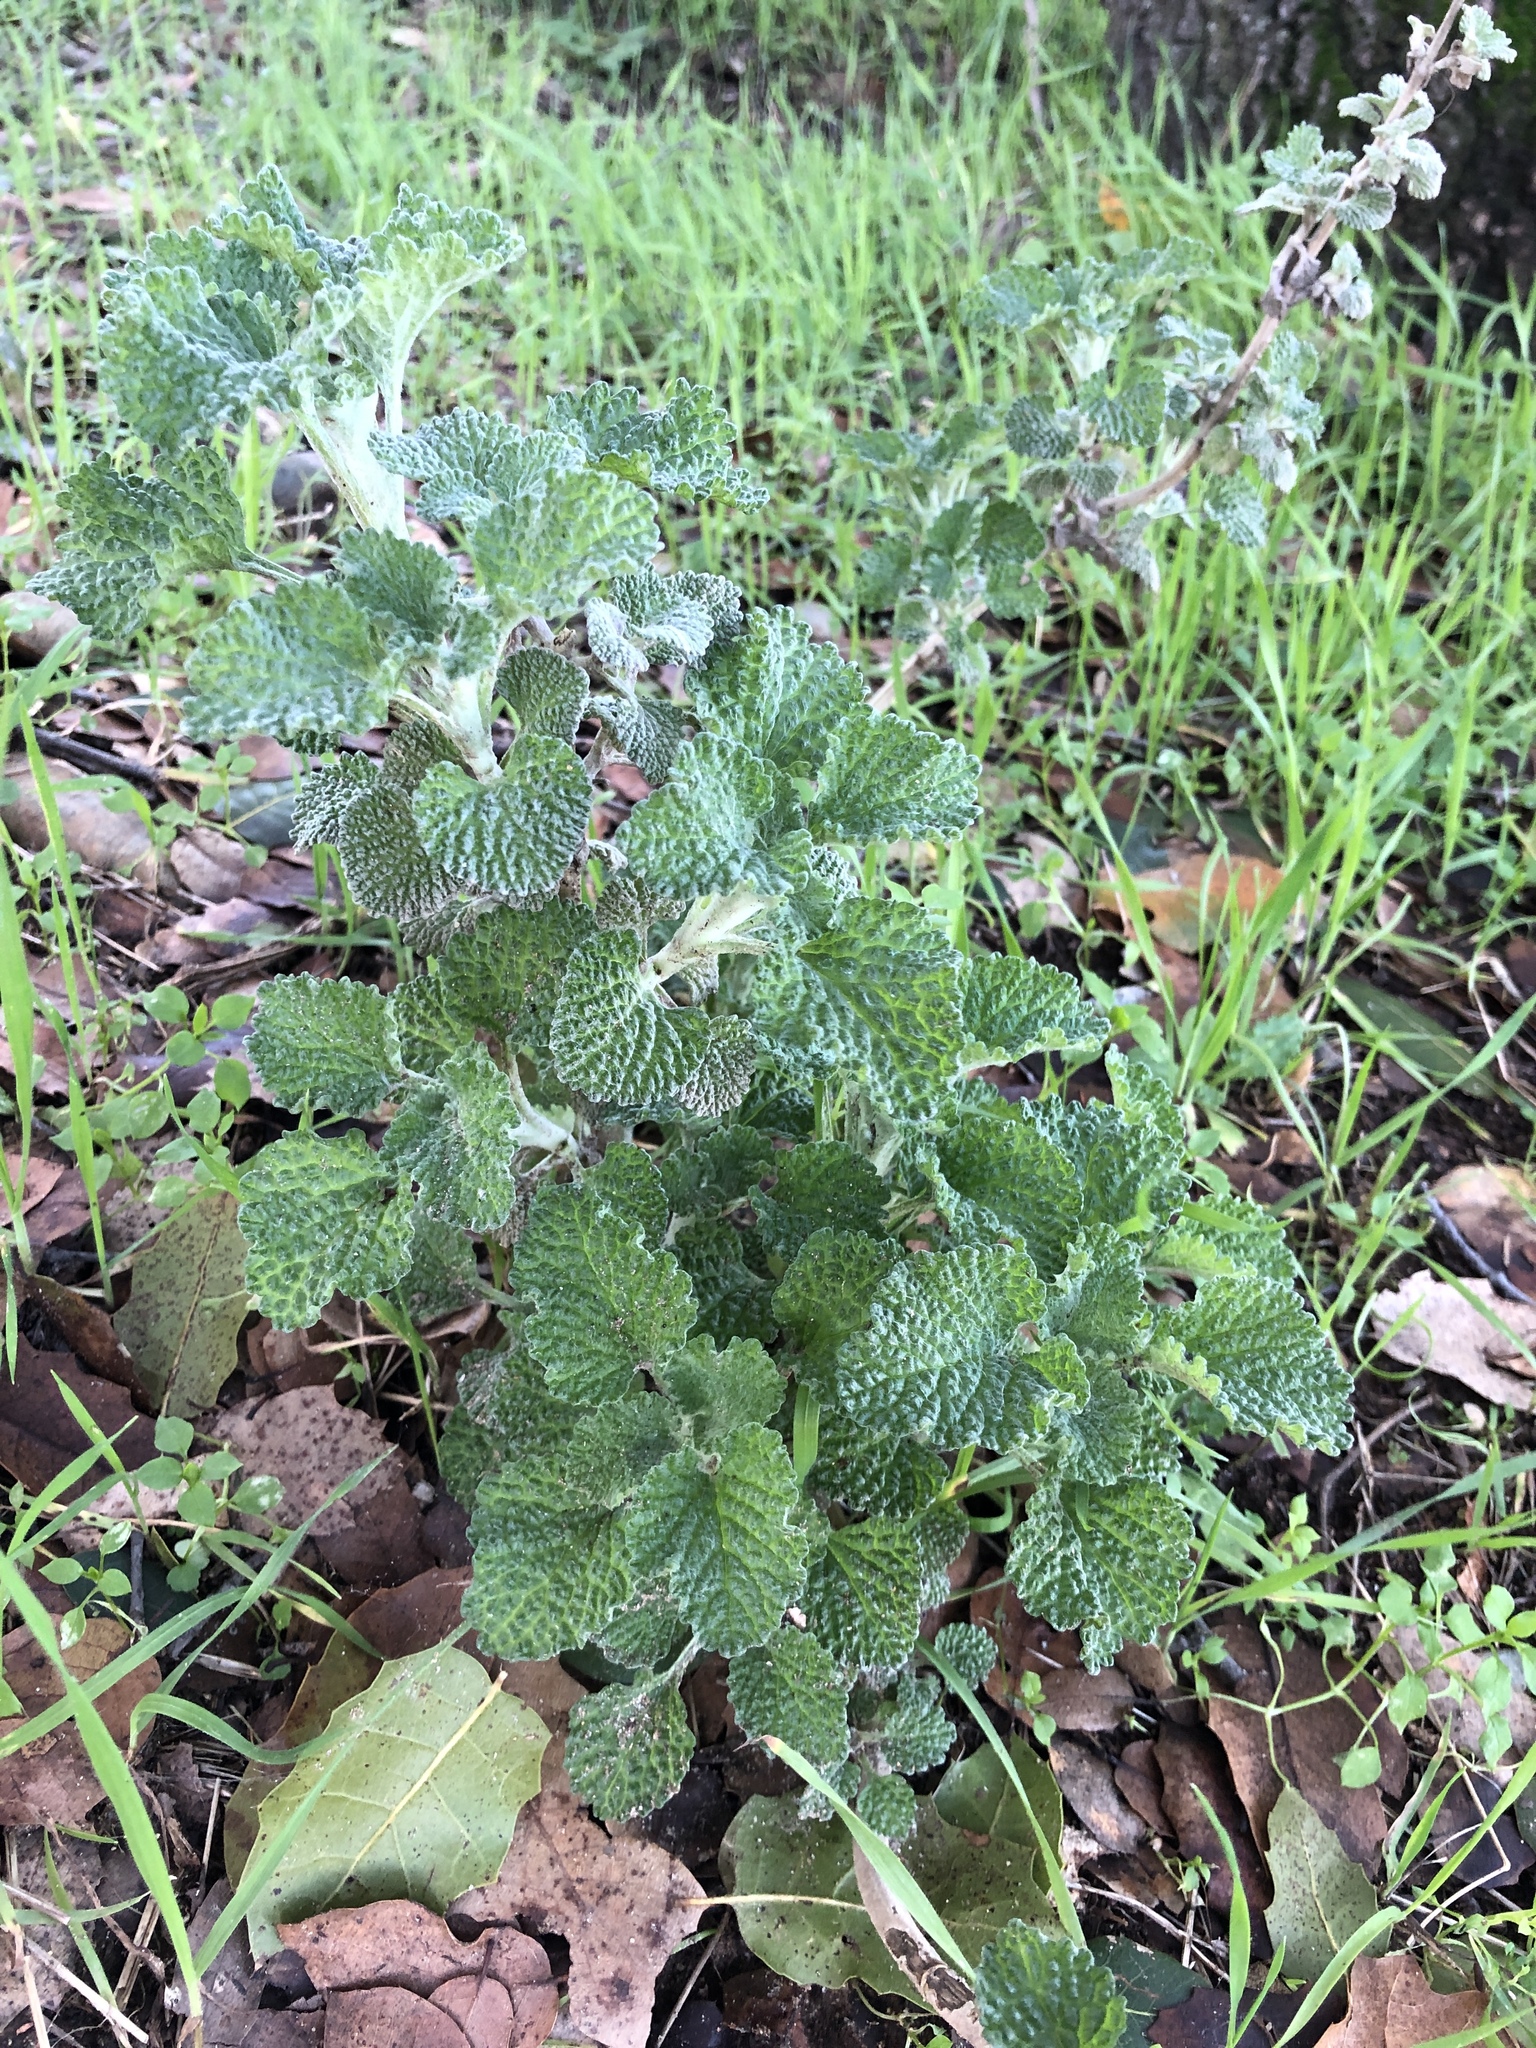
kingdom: Plantae
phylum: Tracheophyta
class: Magnoliopsida
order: Lamiales
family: Lamiaceae
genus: Marrubium
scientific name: Marrubium vulgare
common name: Horehound
